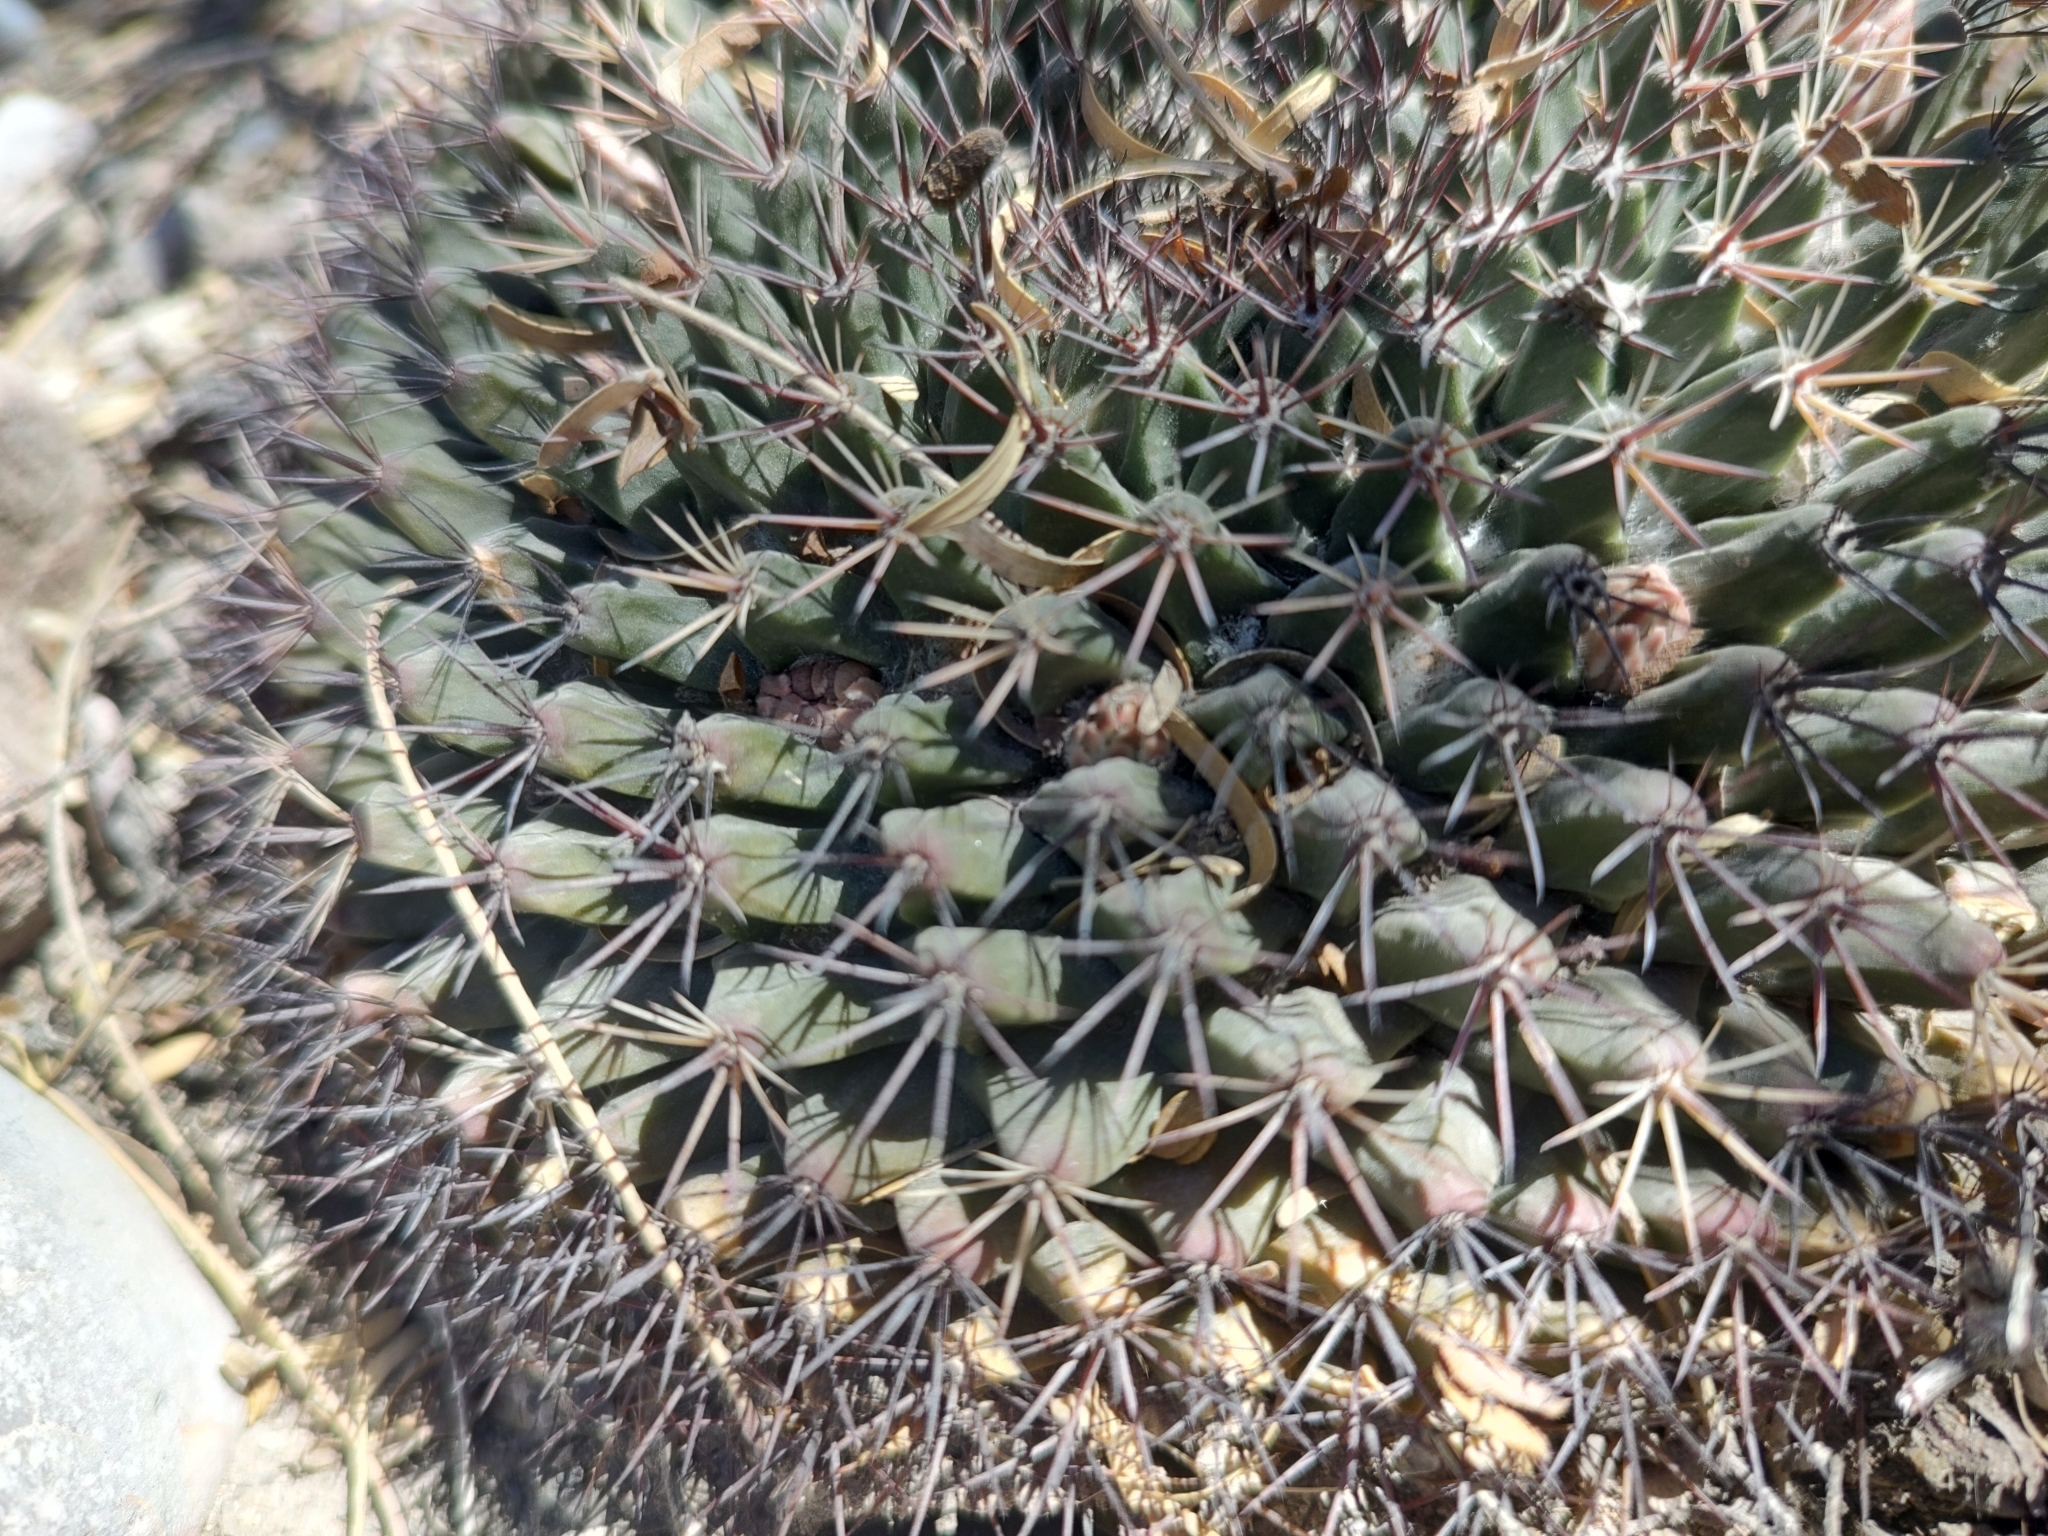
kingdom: Plantae
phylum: Tracheophyta
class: Magnoliopsida
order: Caryophyllales
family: Cactaceae
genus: Mammillaria
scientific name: Mammillaria heyderi
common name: Little nipple cactus
